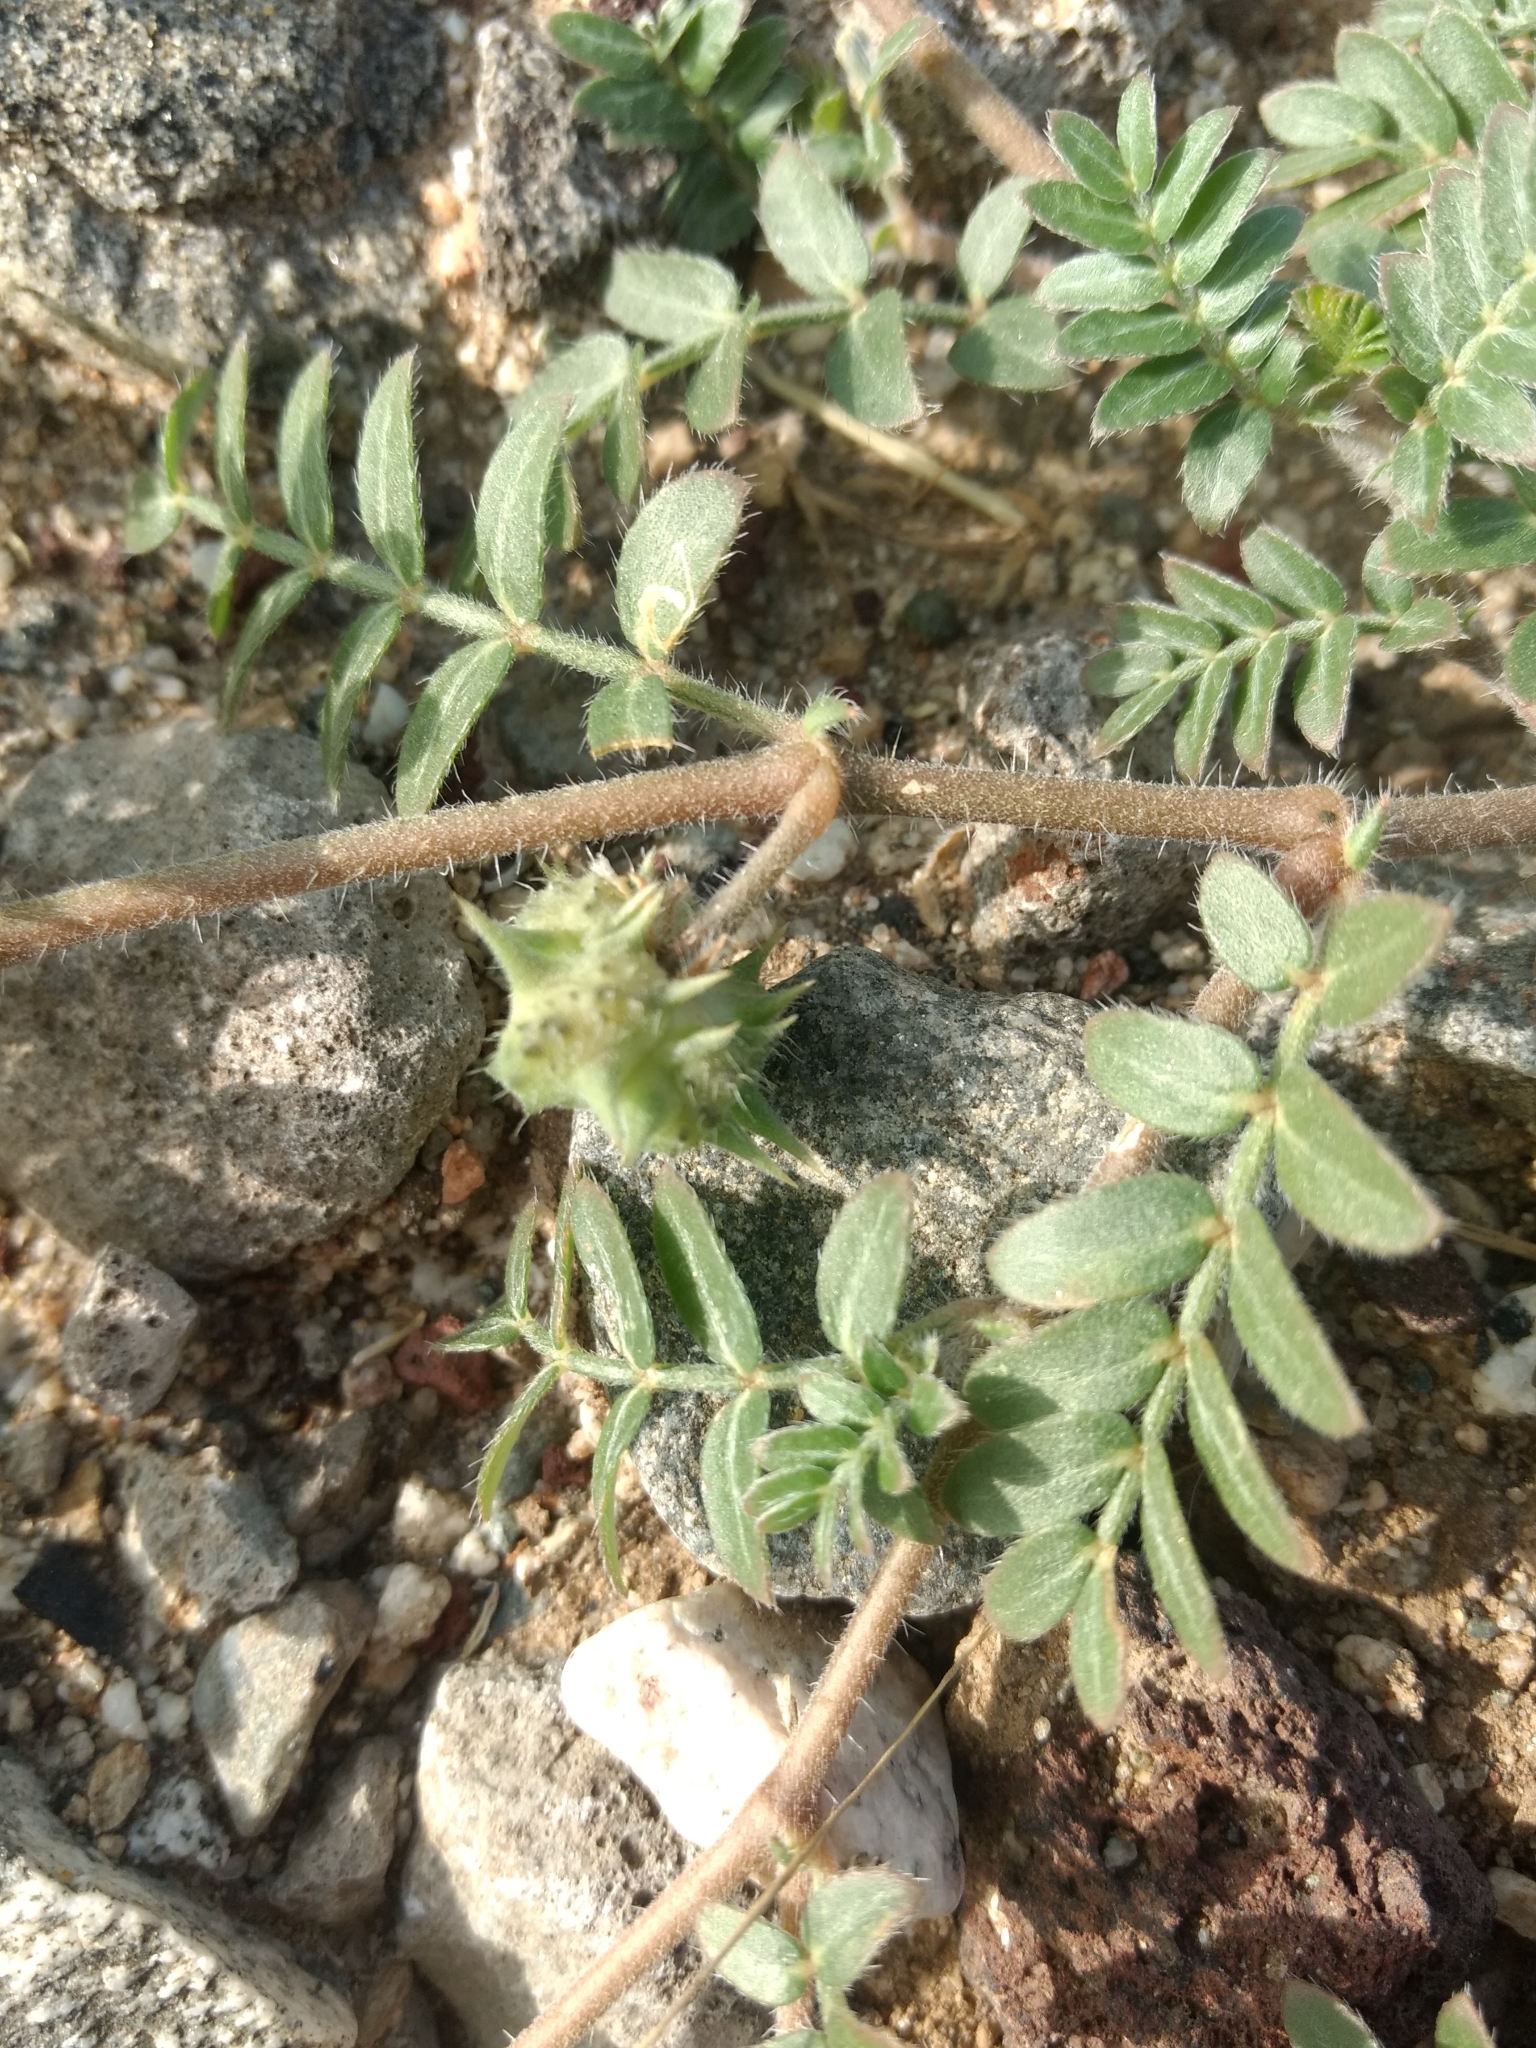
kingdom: Plantae
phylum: Tracheophyta
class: Magnoliopsida
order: Zygophyllales
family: Zygophyllaceae
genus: Tribulus
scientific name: Tribulus terrestris
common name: Puncturevine
